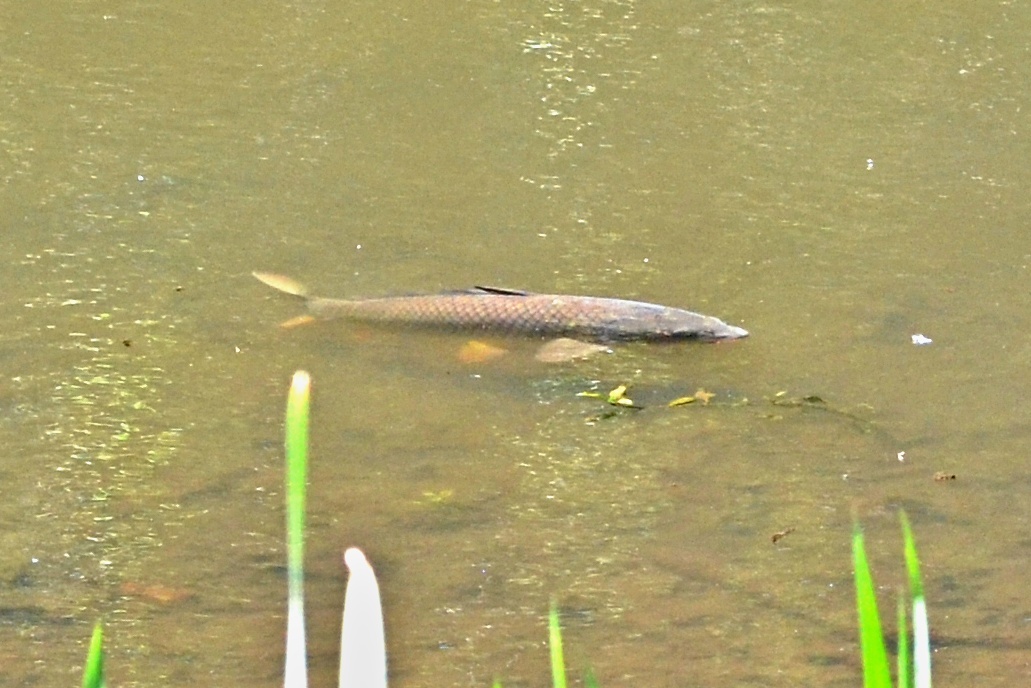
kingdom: Animalia
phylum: Chordata
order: Cypriniformes
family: Cyprinidae
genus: Cyprinus
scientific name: Cyprinus carpio
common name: Common carp
